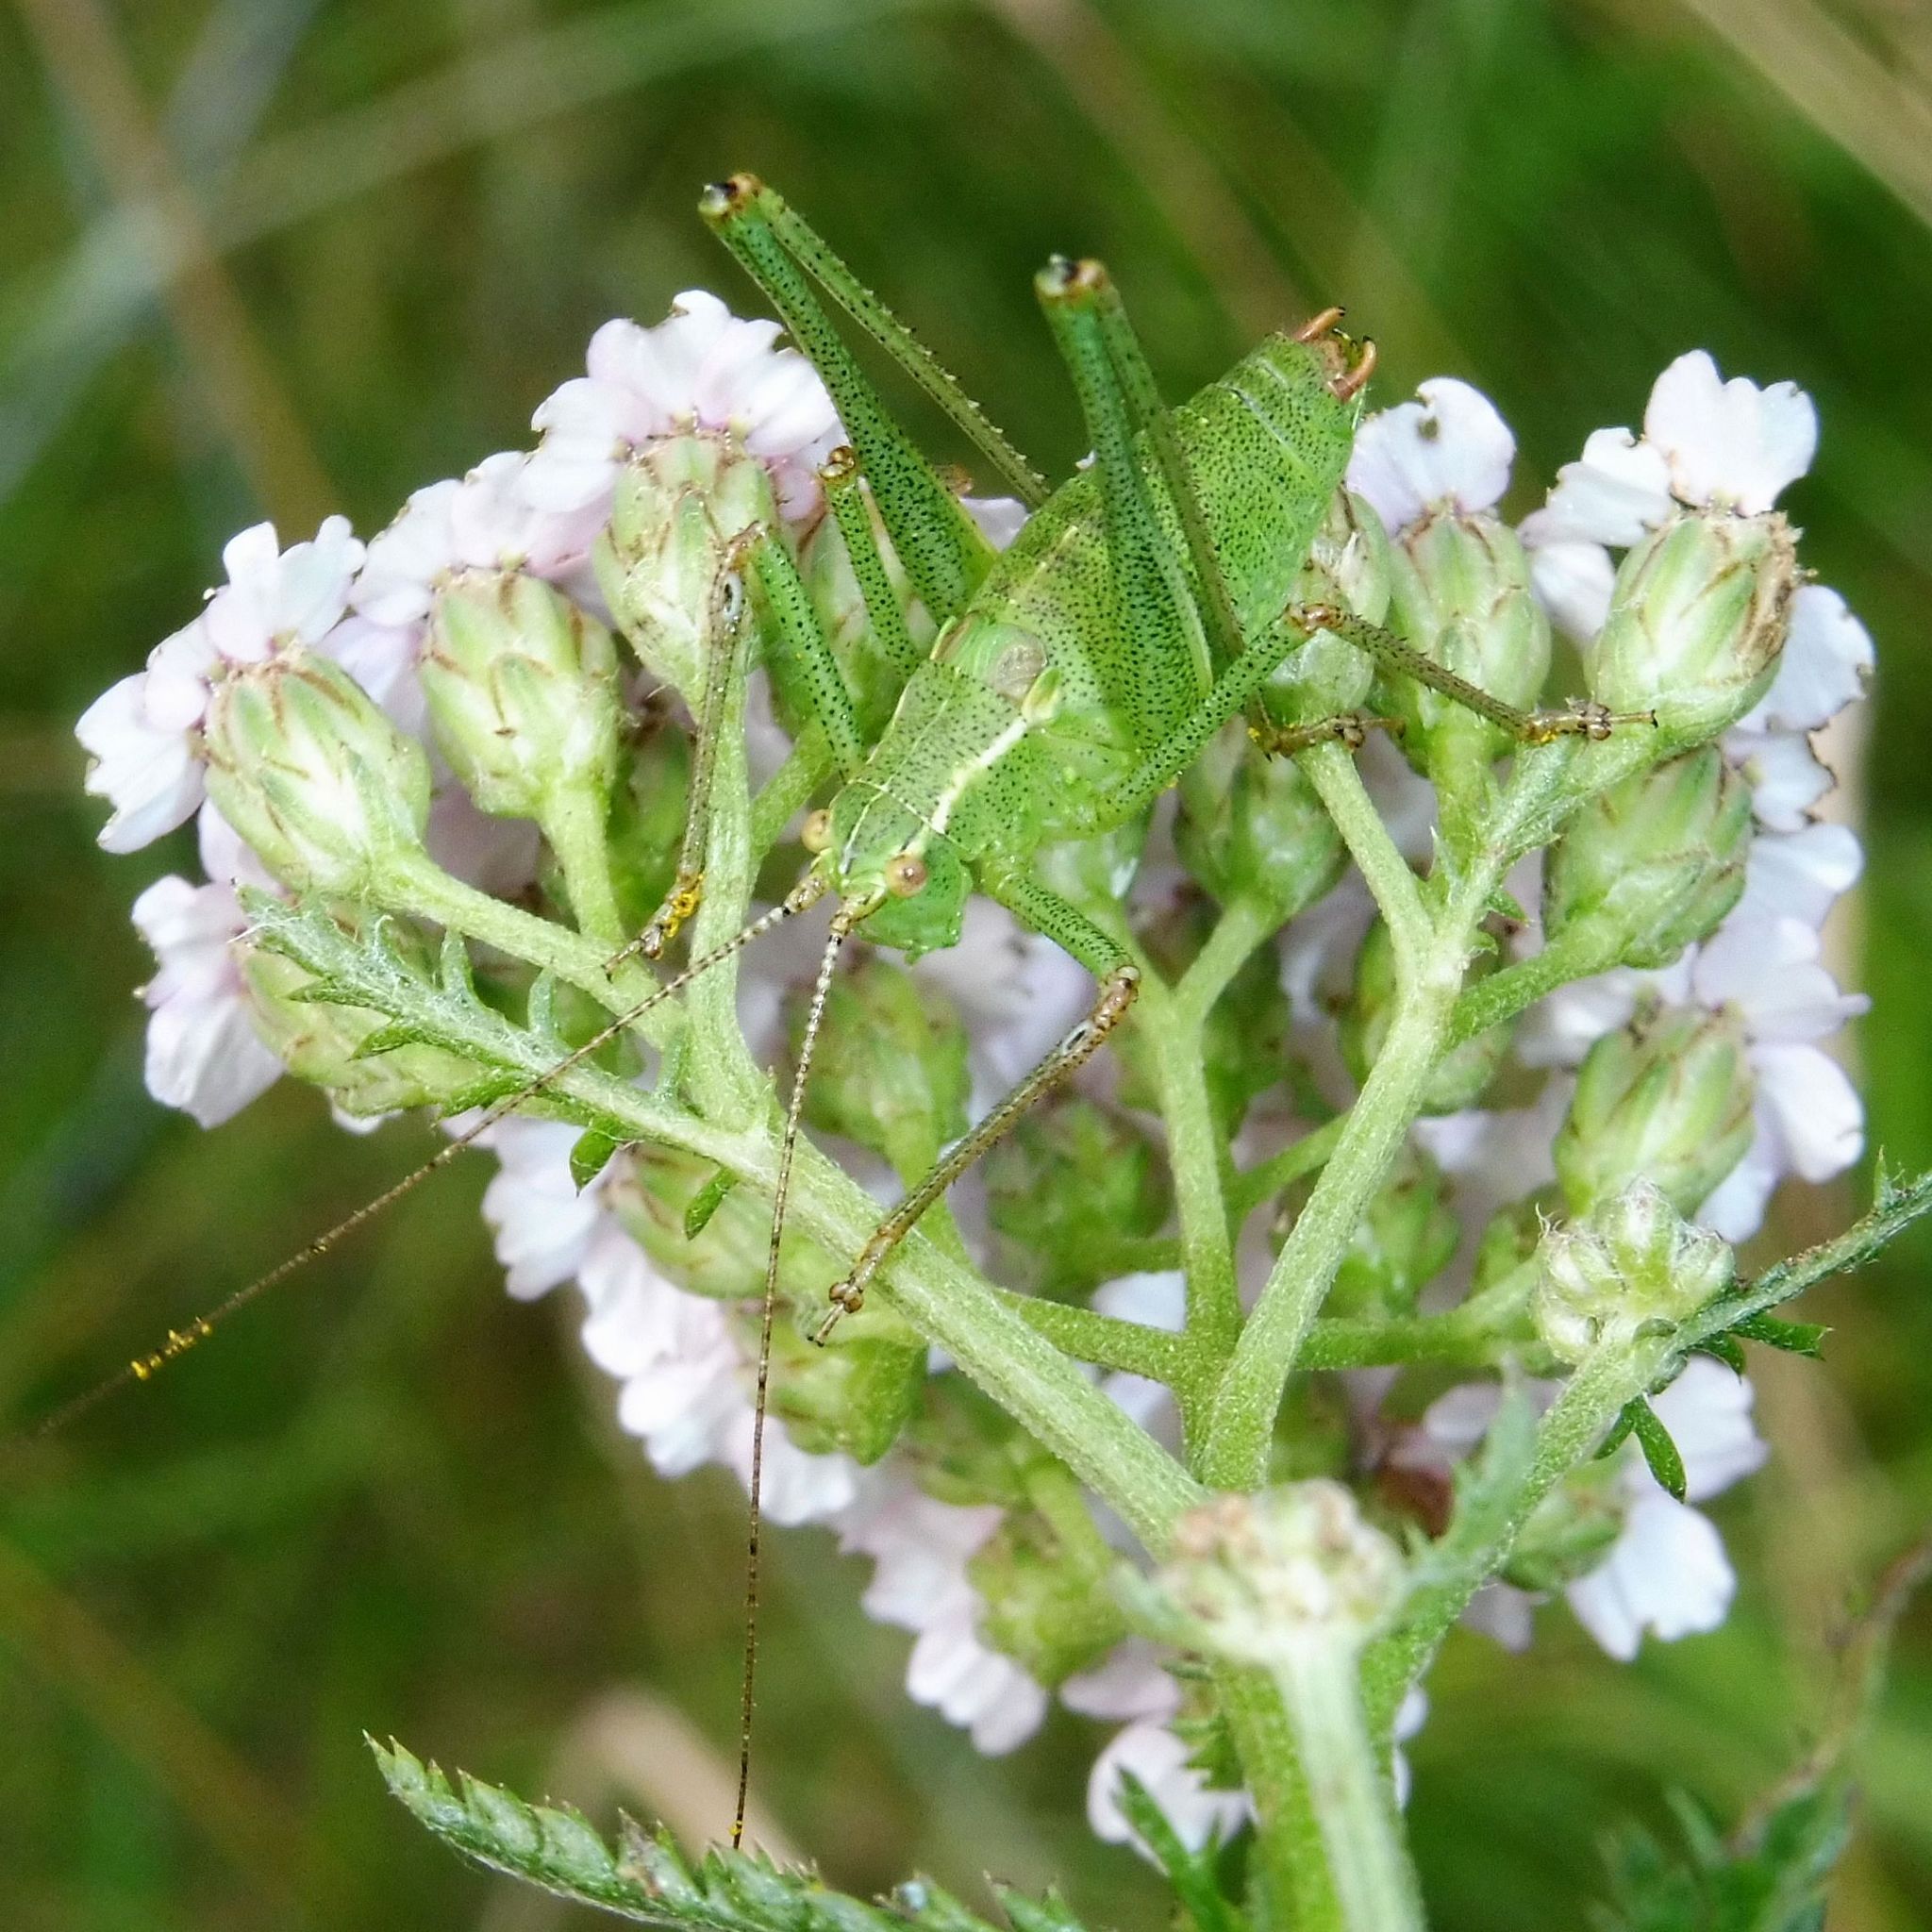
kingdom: Animalia
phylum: Arthropoda
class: Insecta
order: Orthoptera
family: Tettigoniidae
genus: Leptophyes
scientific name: Leptophyes punctatissima
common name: Speckled bush-cricket
